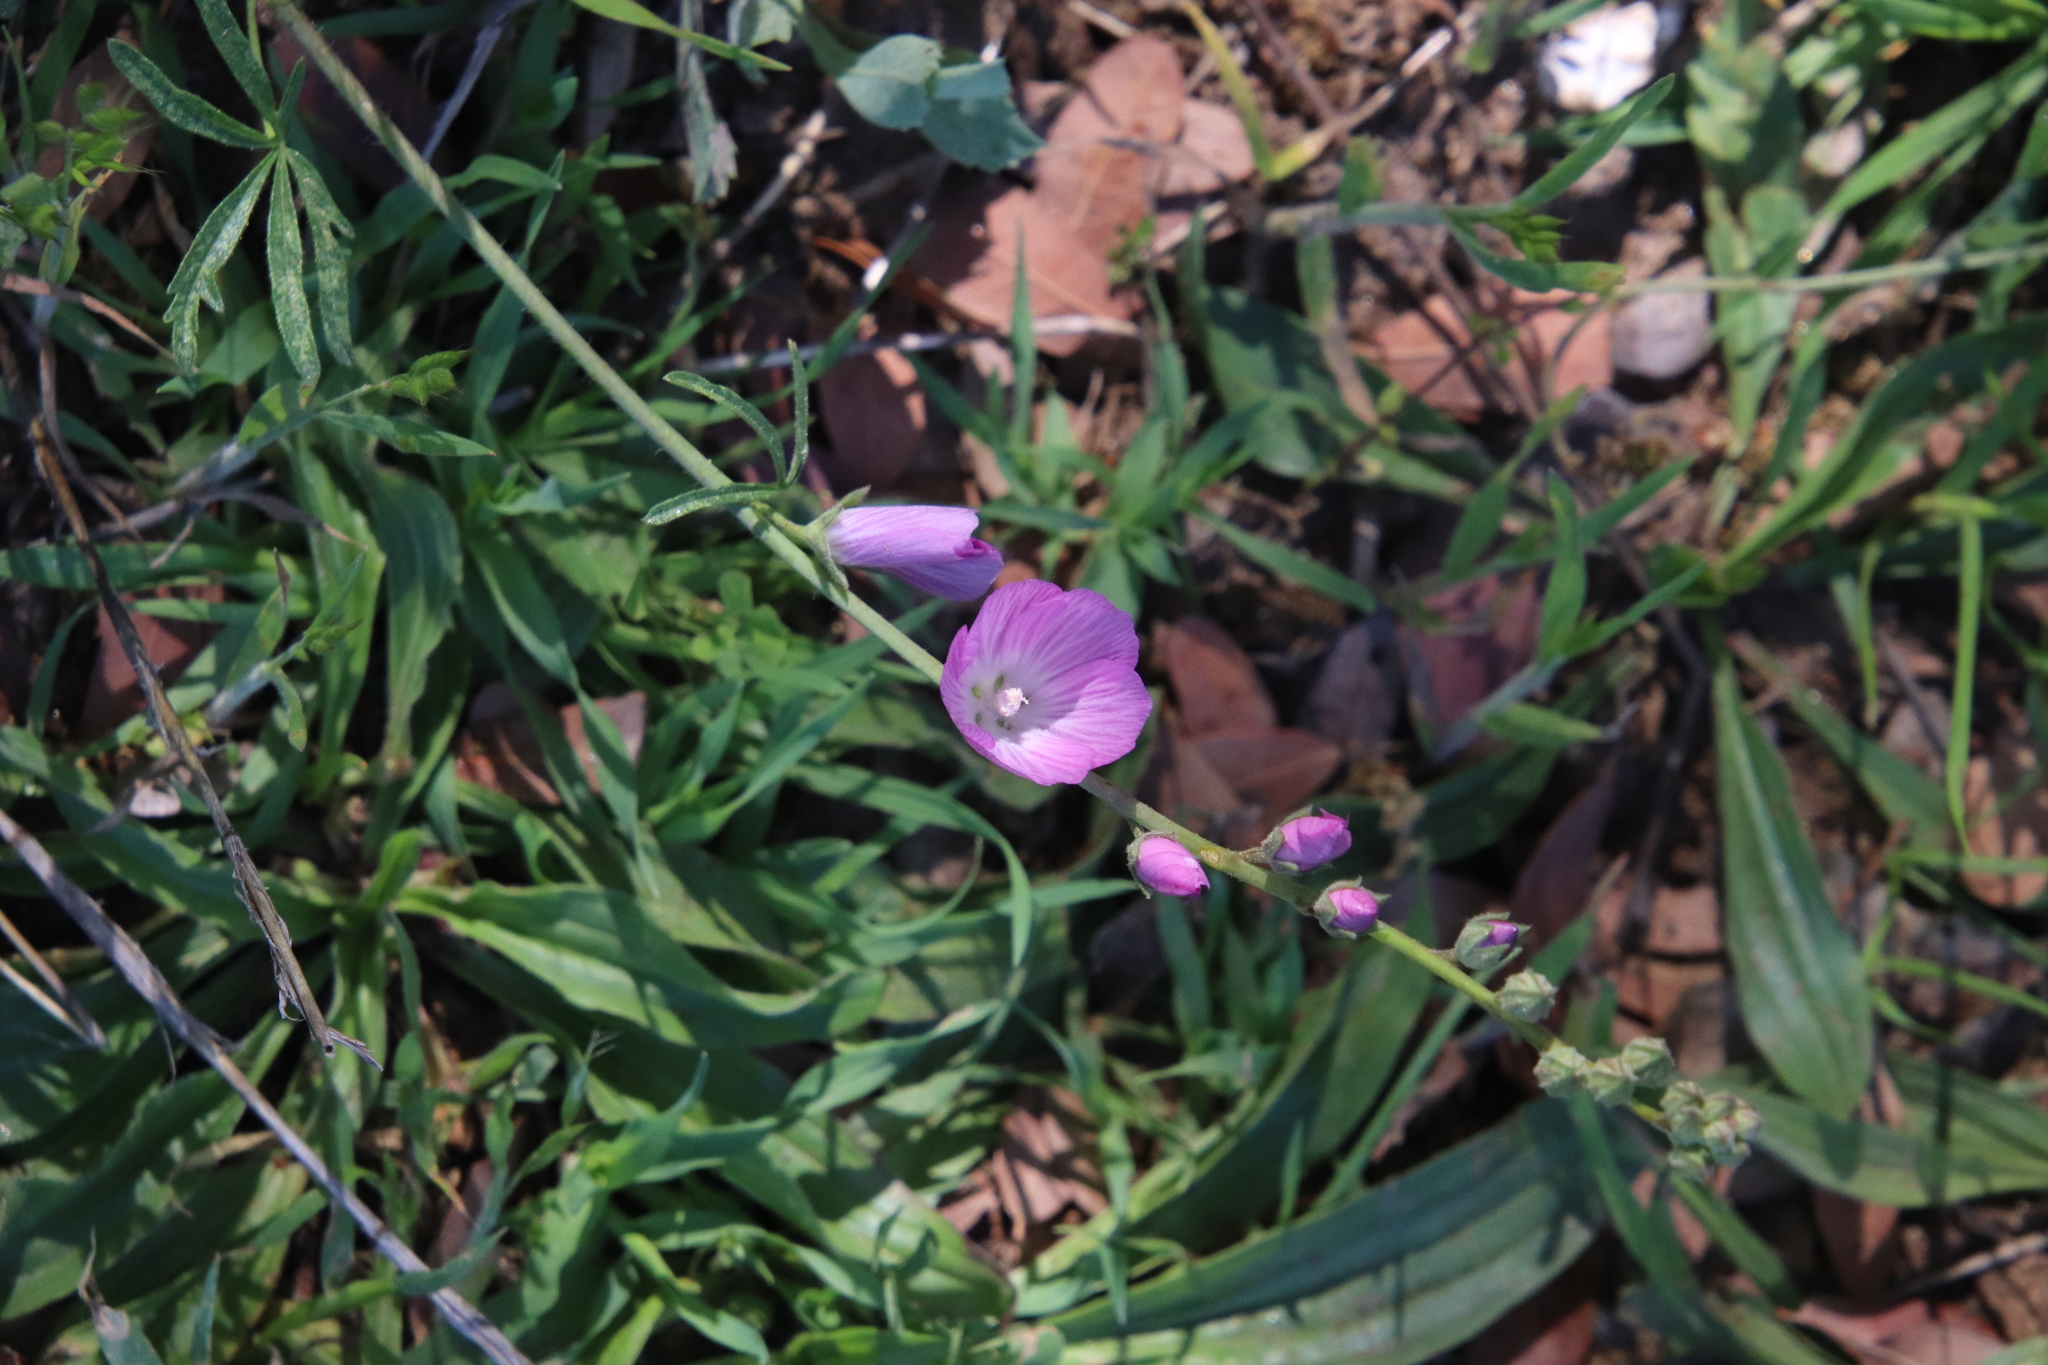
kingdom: Plantae
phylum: Tracheophyta
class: Magnoliopsida
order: Malvales
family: Malvaceae
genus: Sidalcea
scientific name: Sidalcea sparsifolia
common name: Southern checkerbloom
